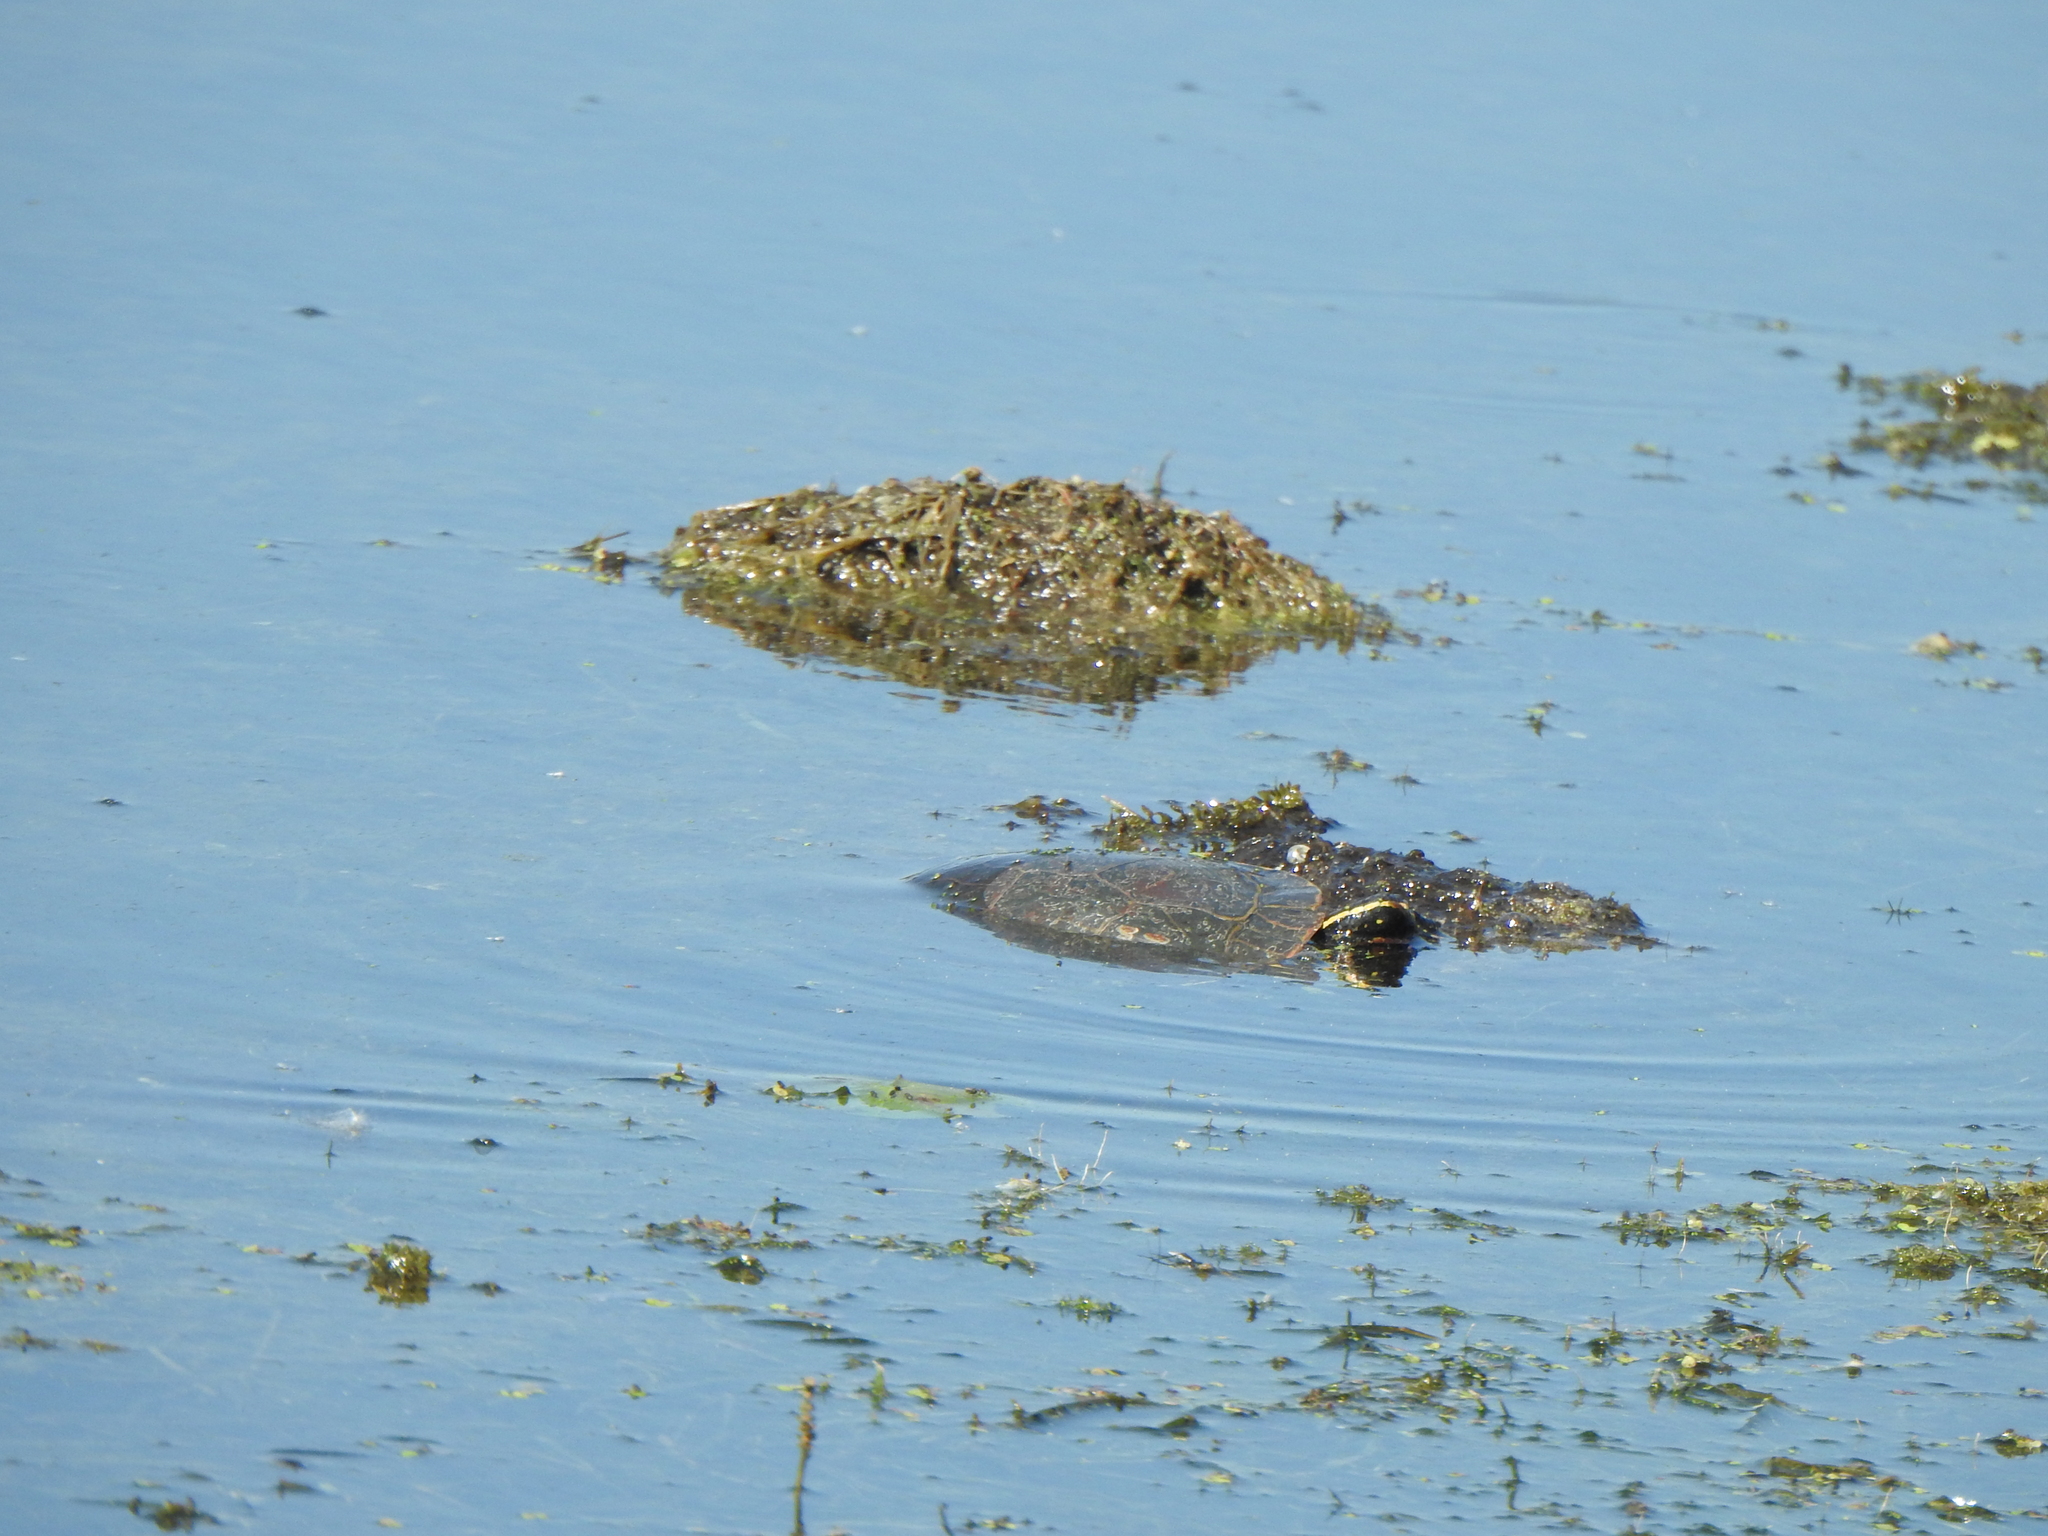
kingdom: Animalia
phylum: Chordata
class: Testudines
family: Emydidae
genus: Chrysemys
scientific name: Chrysemys picta
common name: Painted turtle
